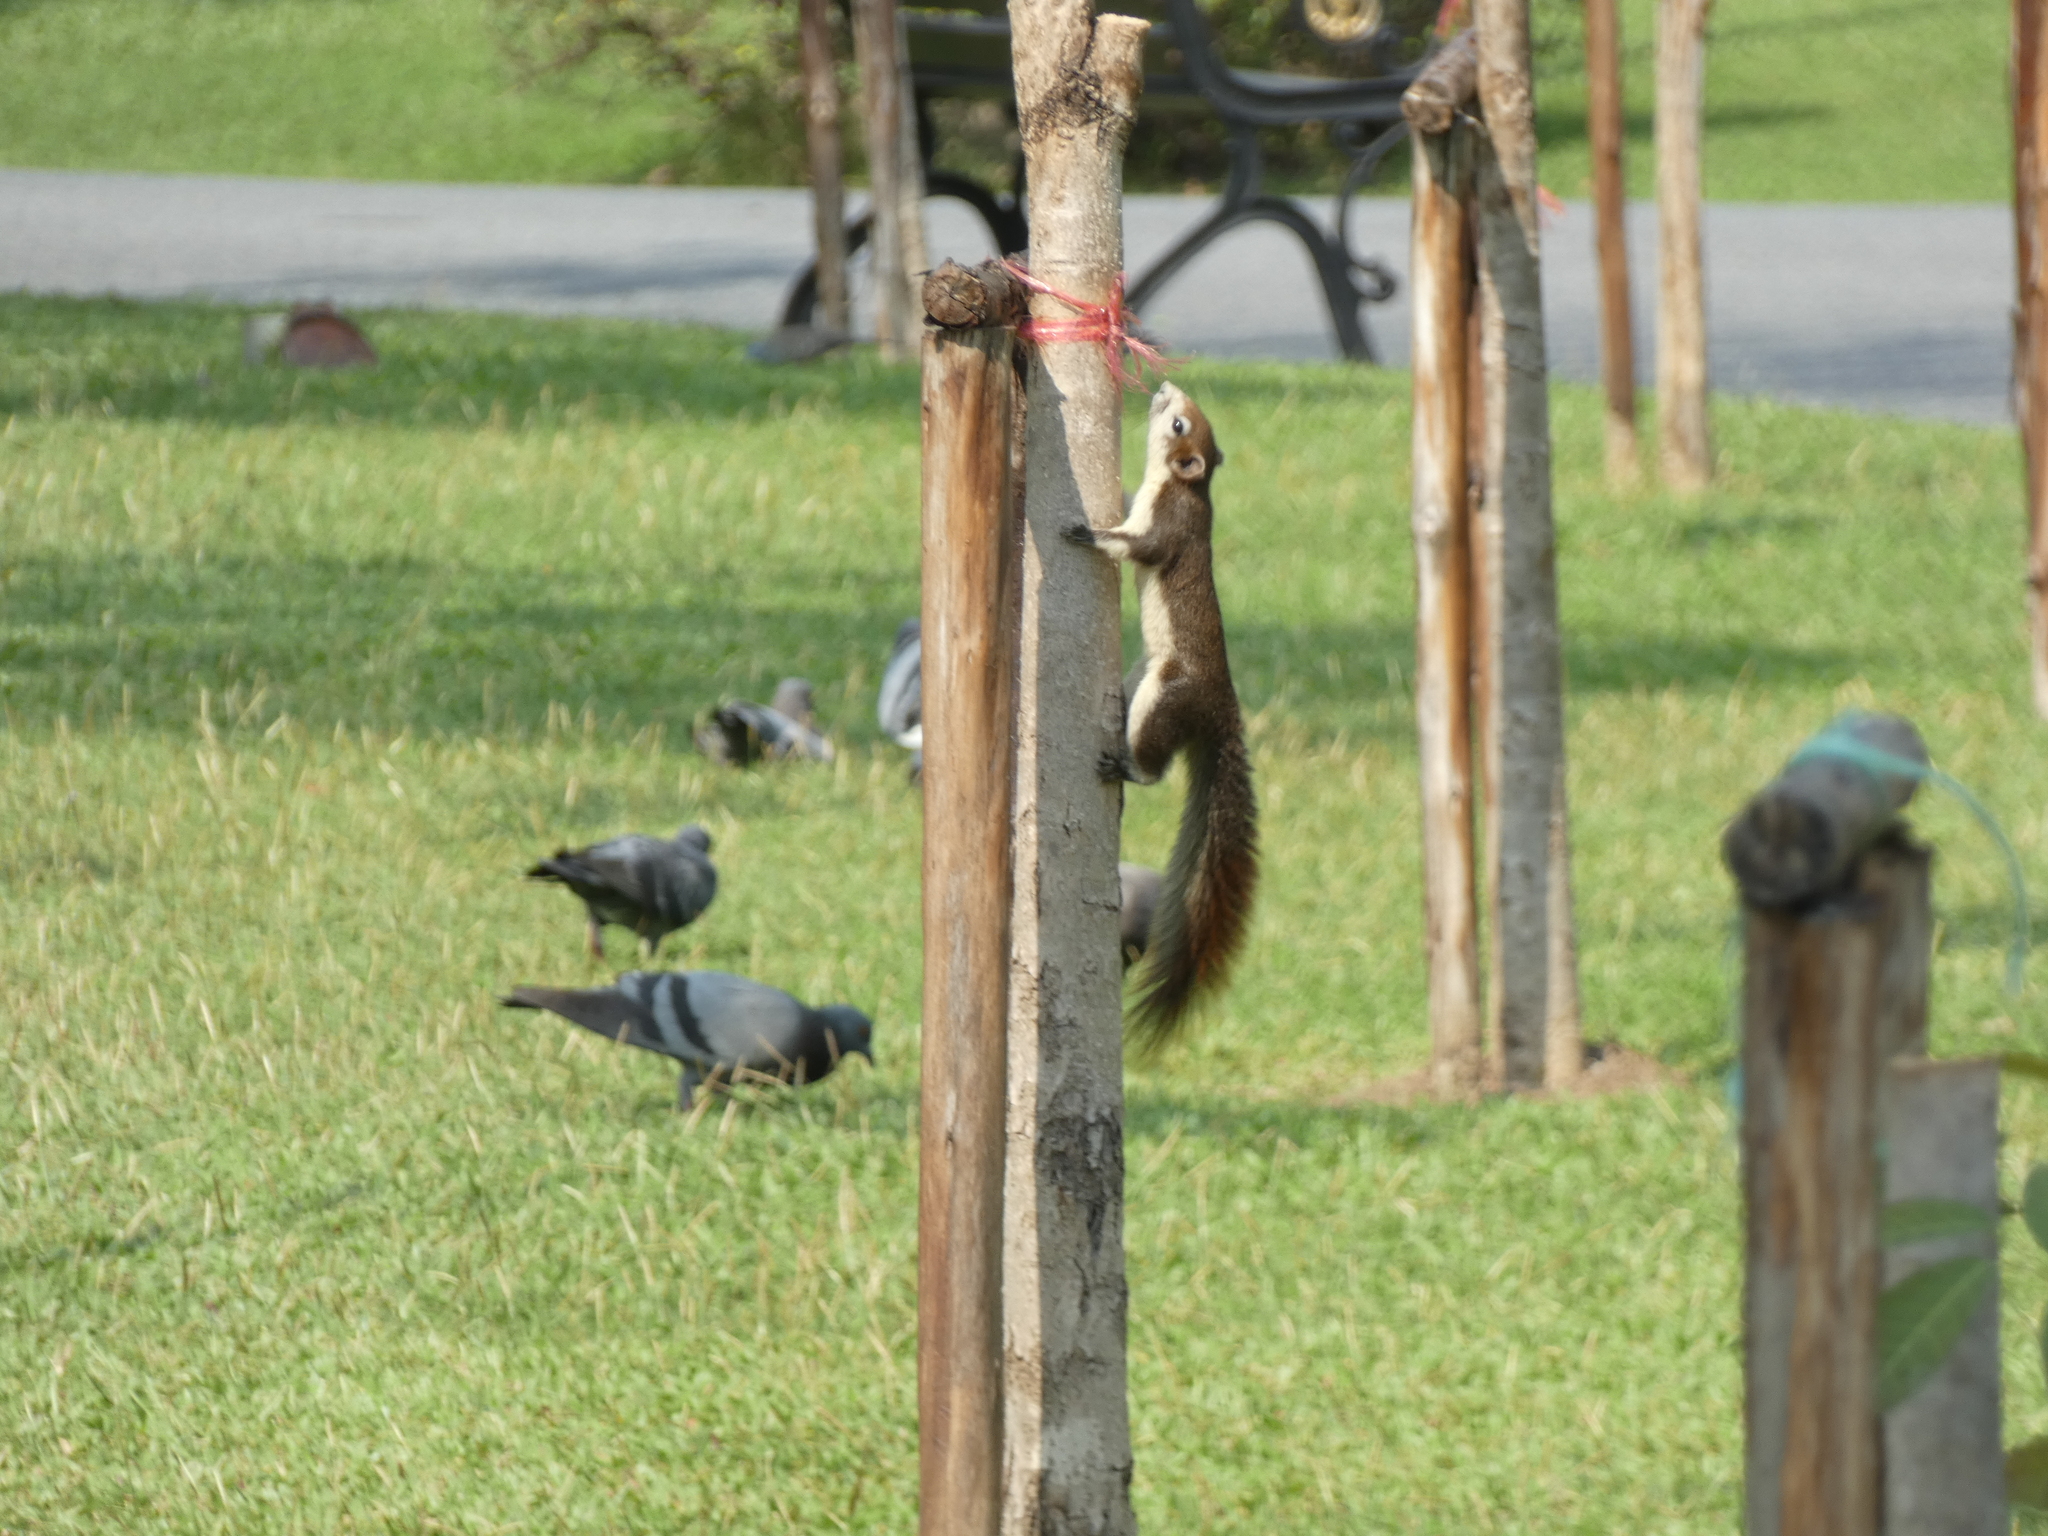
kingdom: Animalia
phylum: Chordata
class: Mammalia
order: Rodentia
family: Sciuridae
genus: Callosciurus
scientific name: Callosciurus finlaysonii
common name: Finlayson's squirrel
